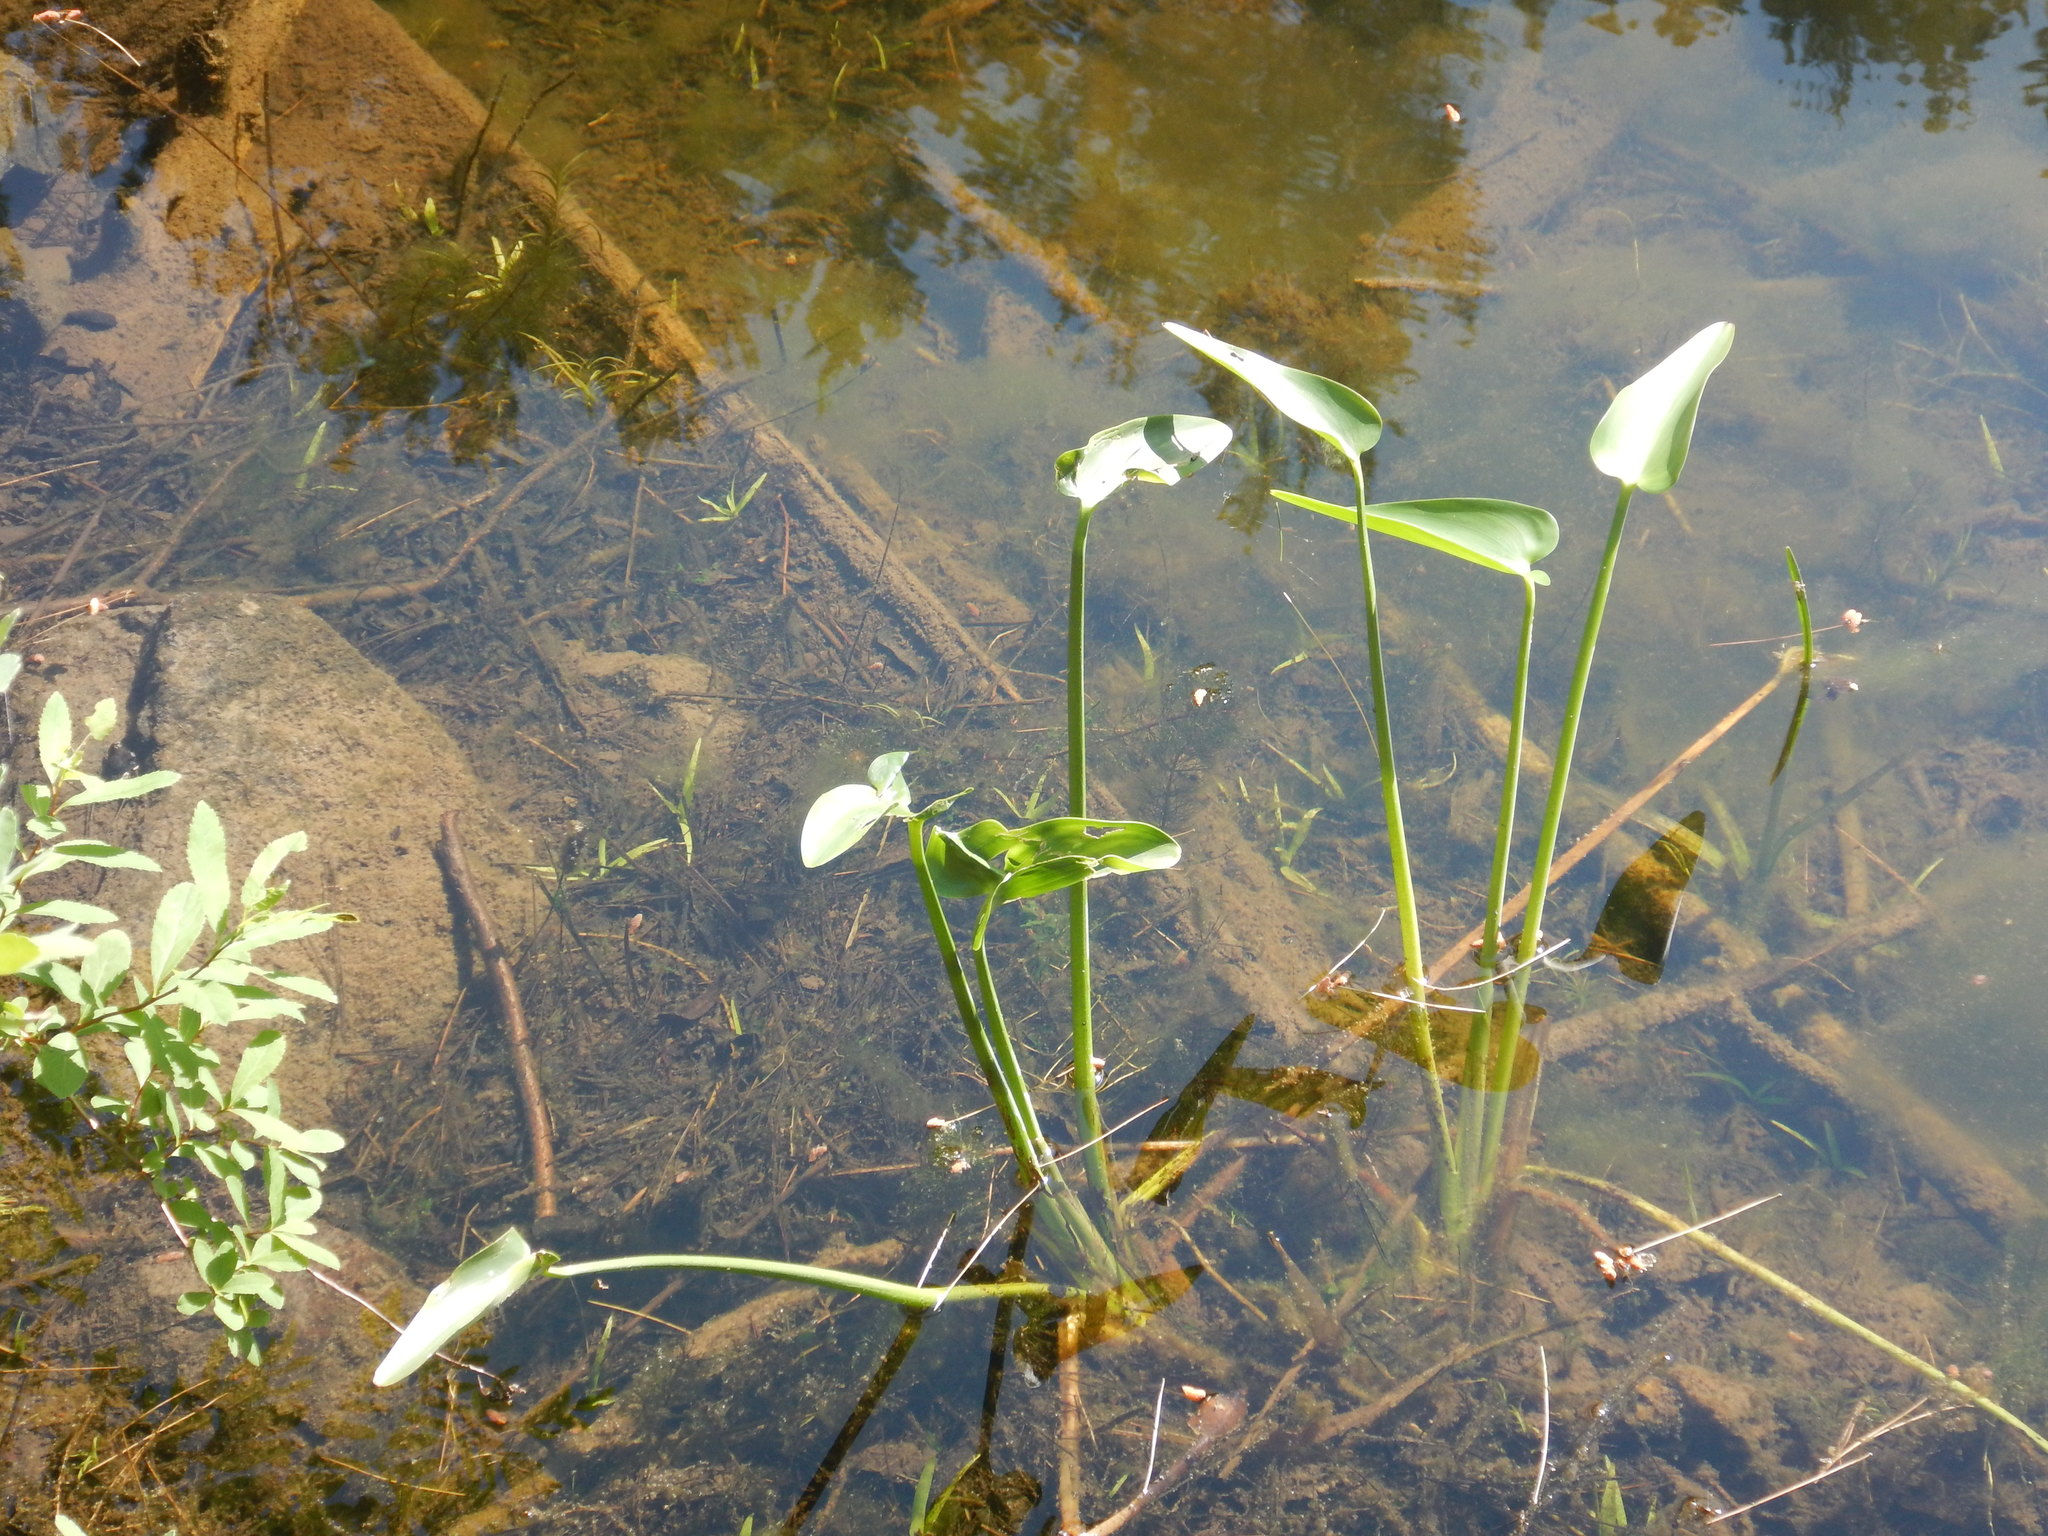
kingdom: Plantae
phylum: Tracheophyta
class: Liliopsida
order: Commelinales
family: Pontederiaceae
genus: Pontederia
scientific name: Pontederia cordata
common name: Pickerelweed
